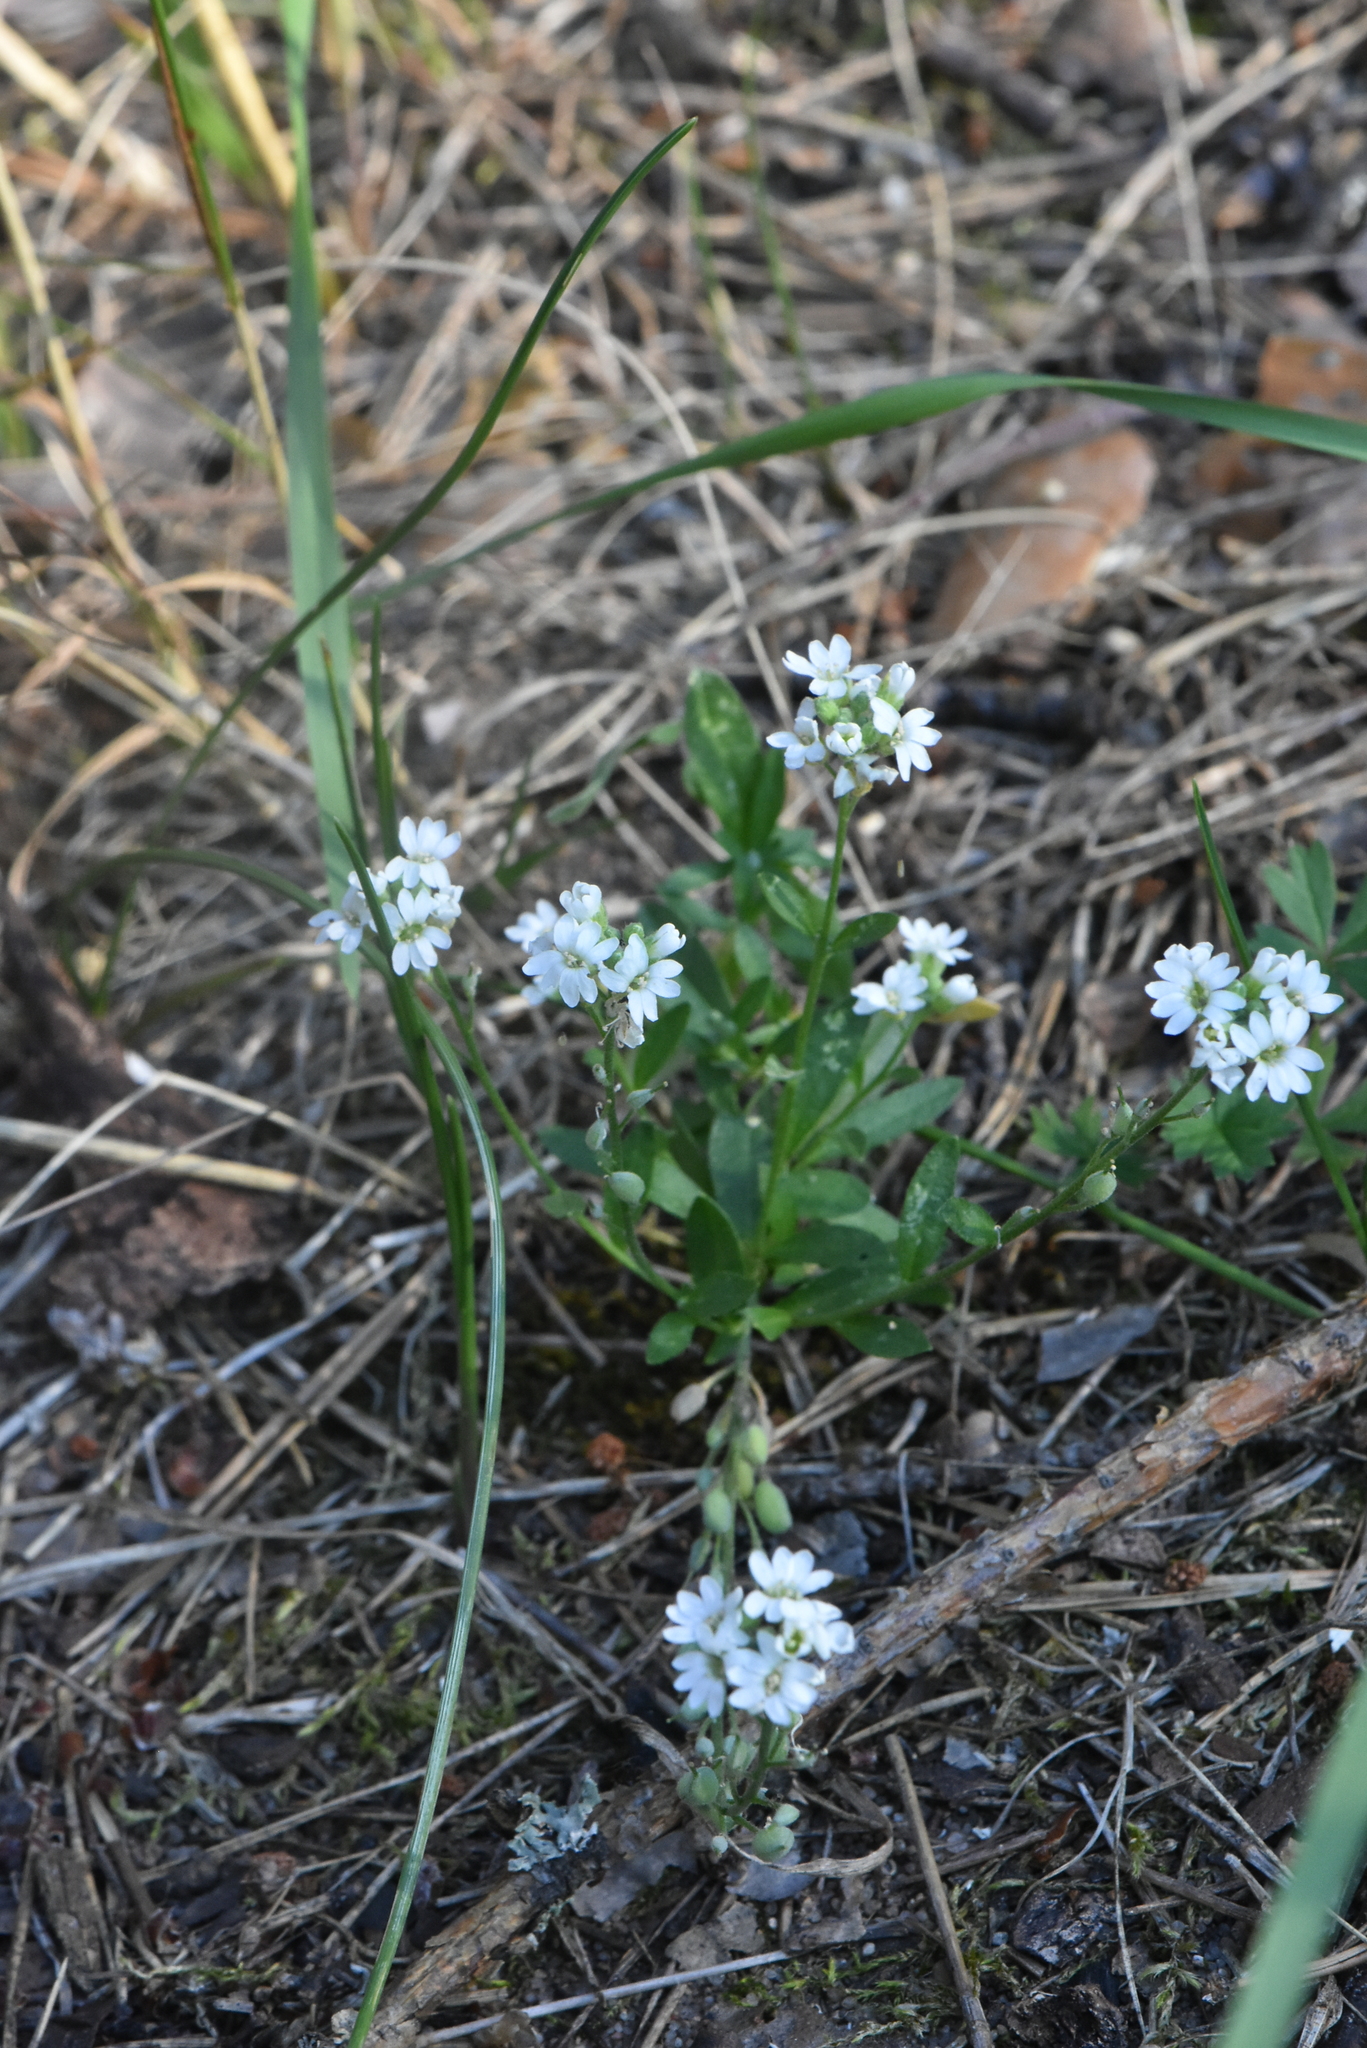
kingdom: Plantae
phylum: Tracheophyta
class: Magnoliopsida
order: Brassicales
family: Brassicaceae
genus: Berteroa
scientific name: Berteroa incana
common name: Hoary alison
